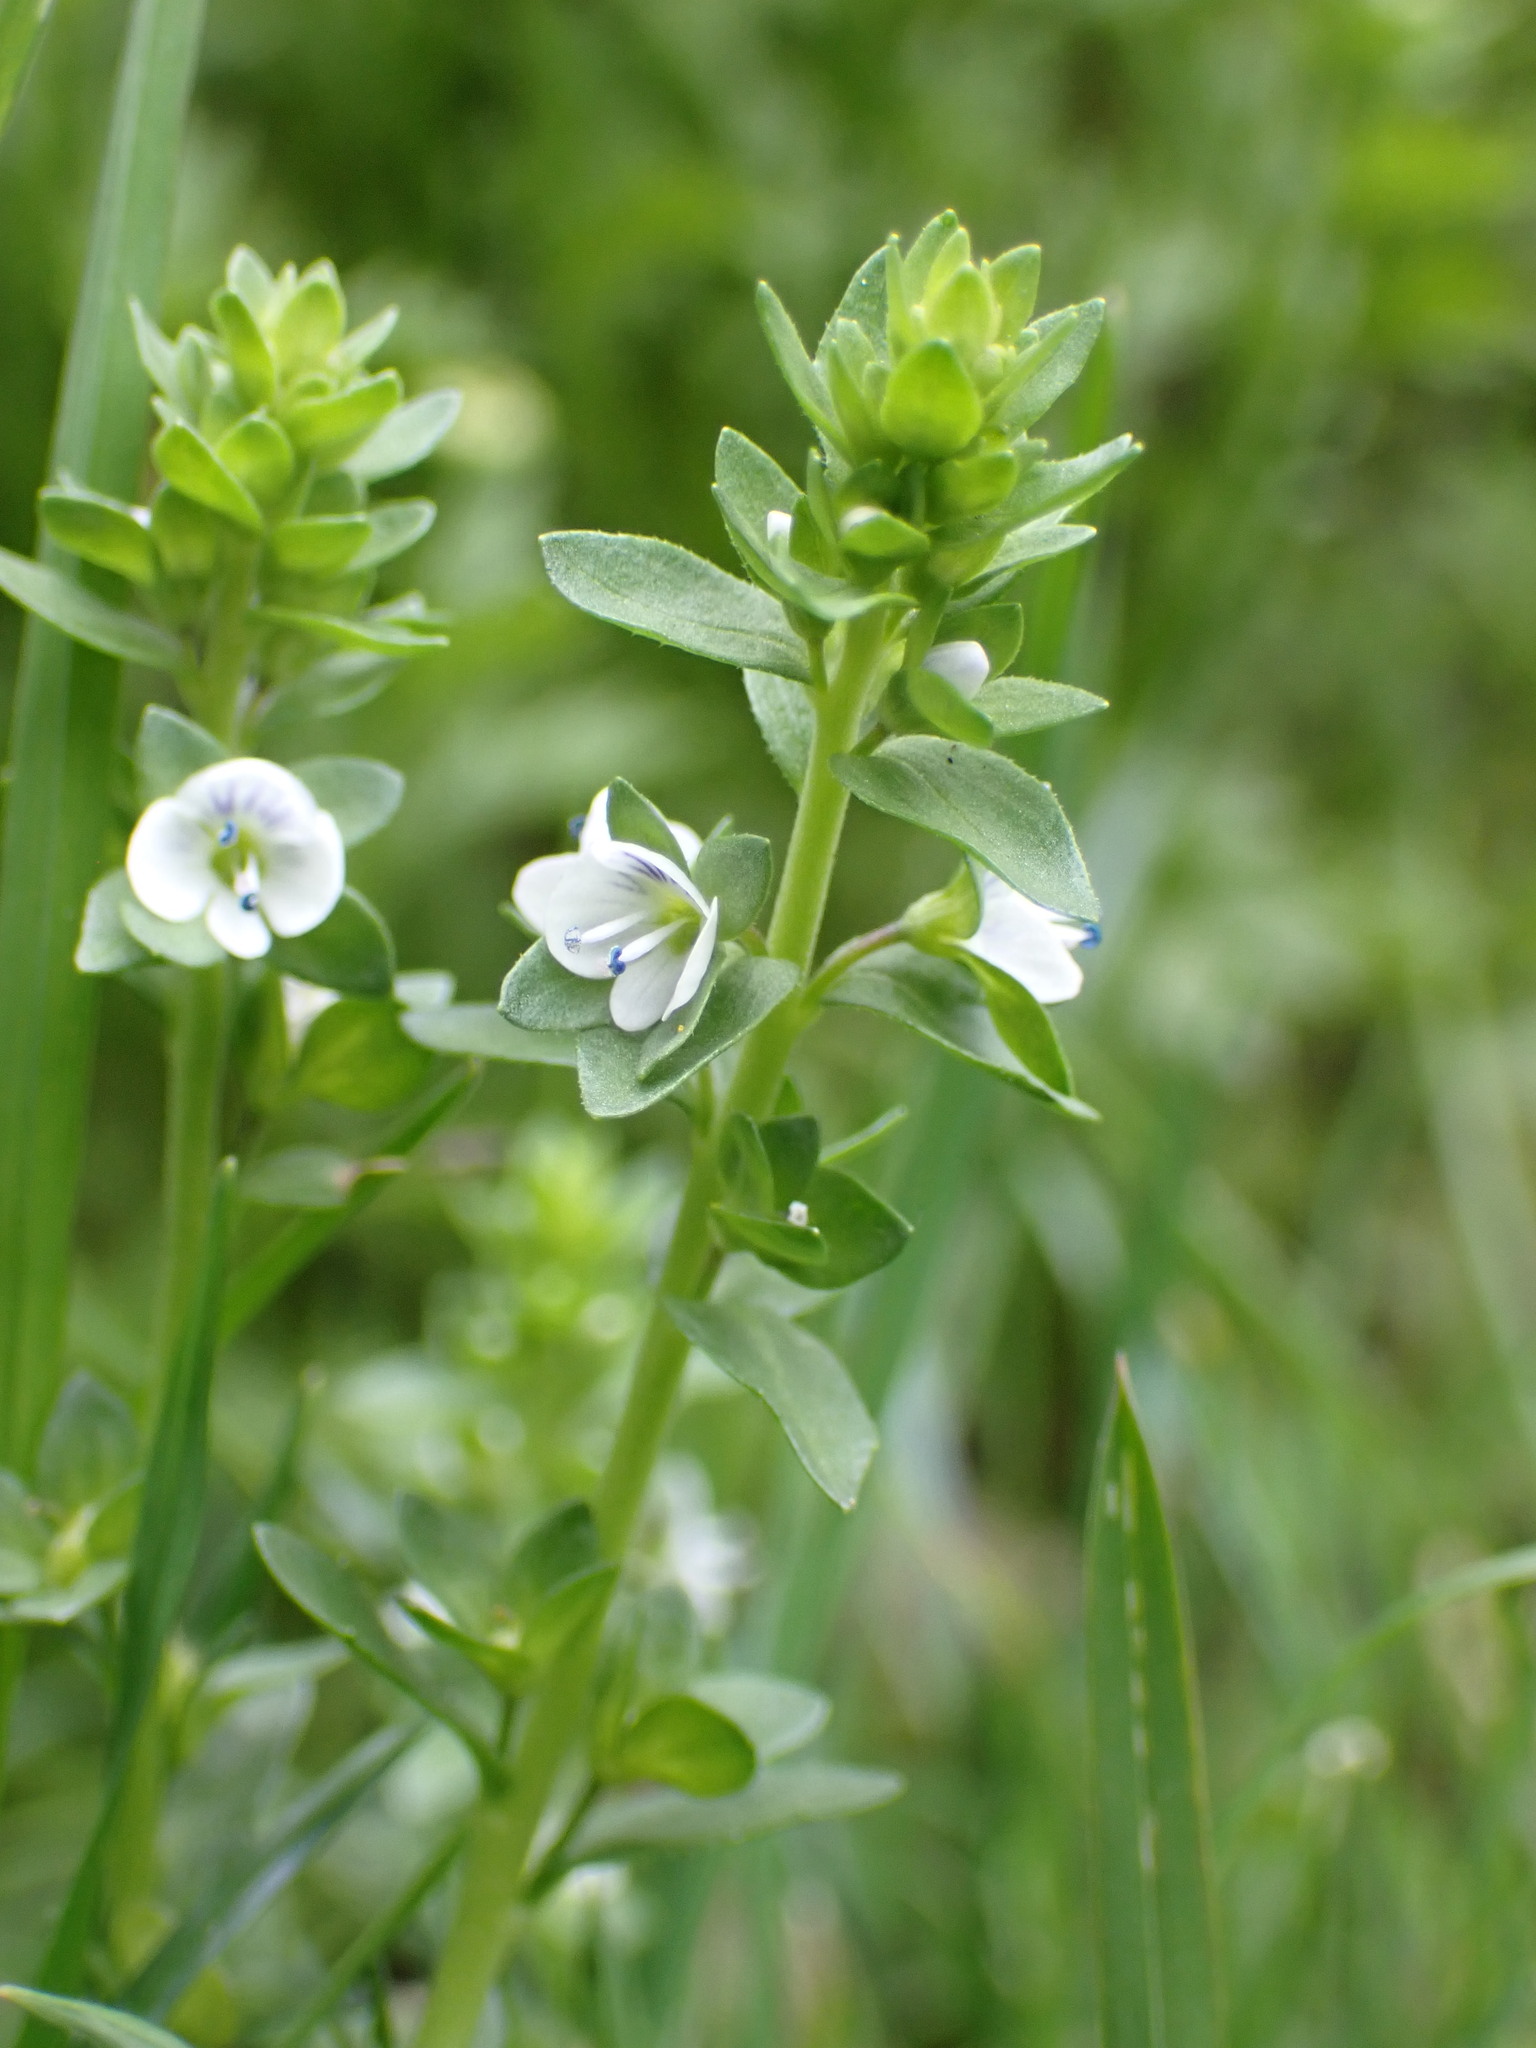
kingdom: Plantae
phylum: Tracheophyta
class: Magnoliopsida
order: Lamiales
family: Plantaginaceae
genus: Veronica
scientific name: Veronica serpyllifolia
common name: Thyme-leaved speedwell
